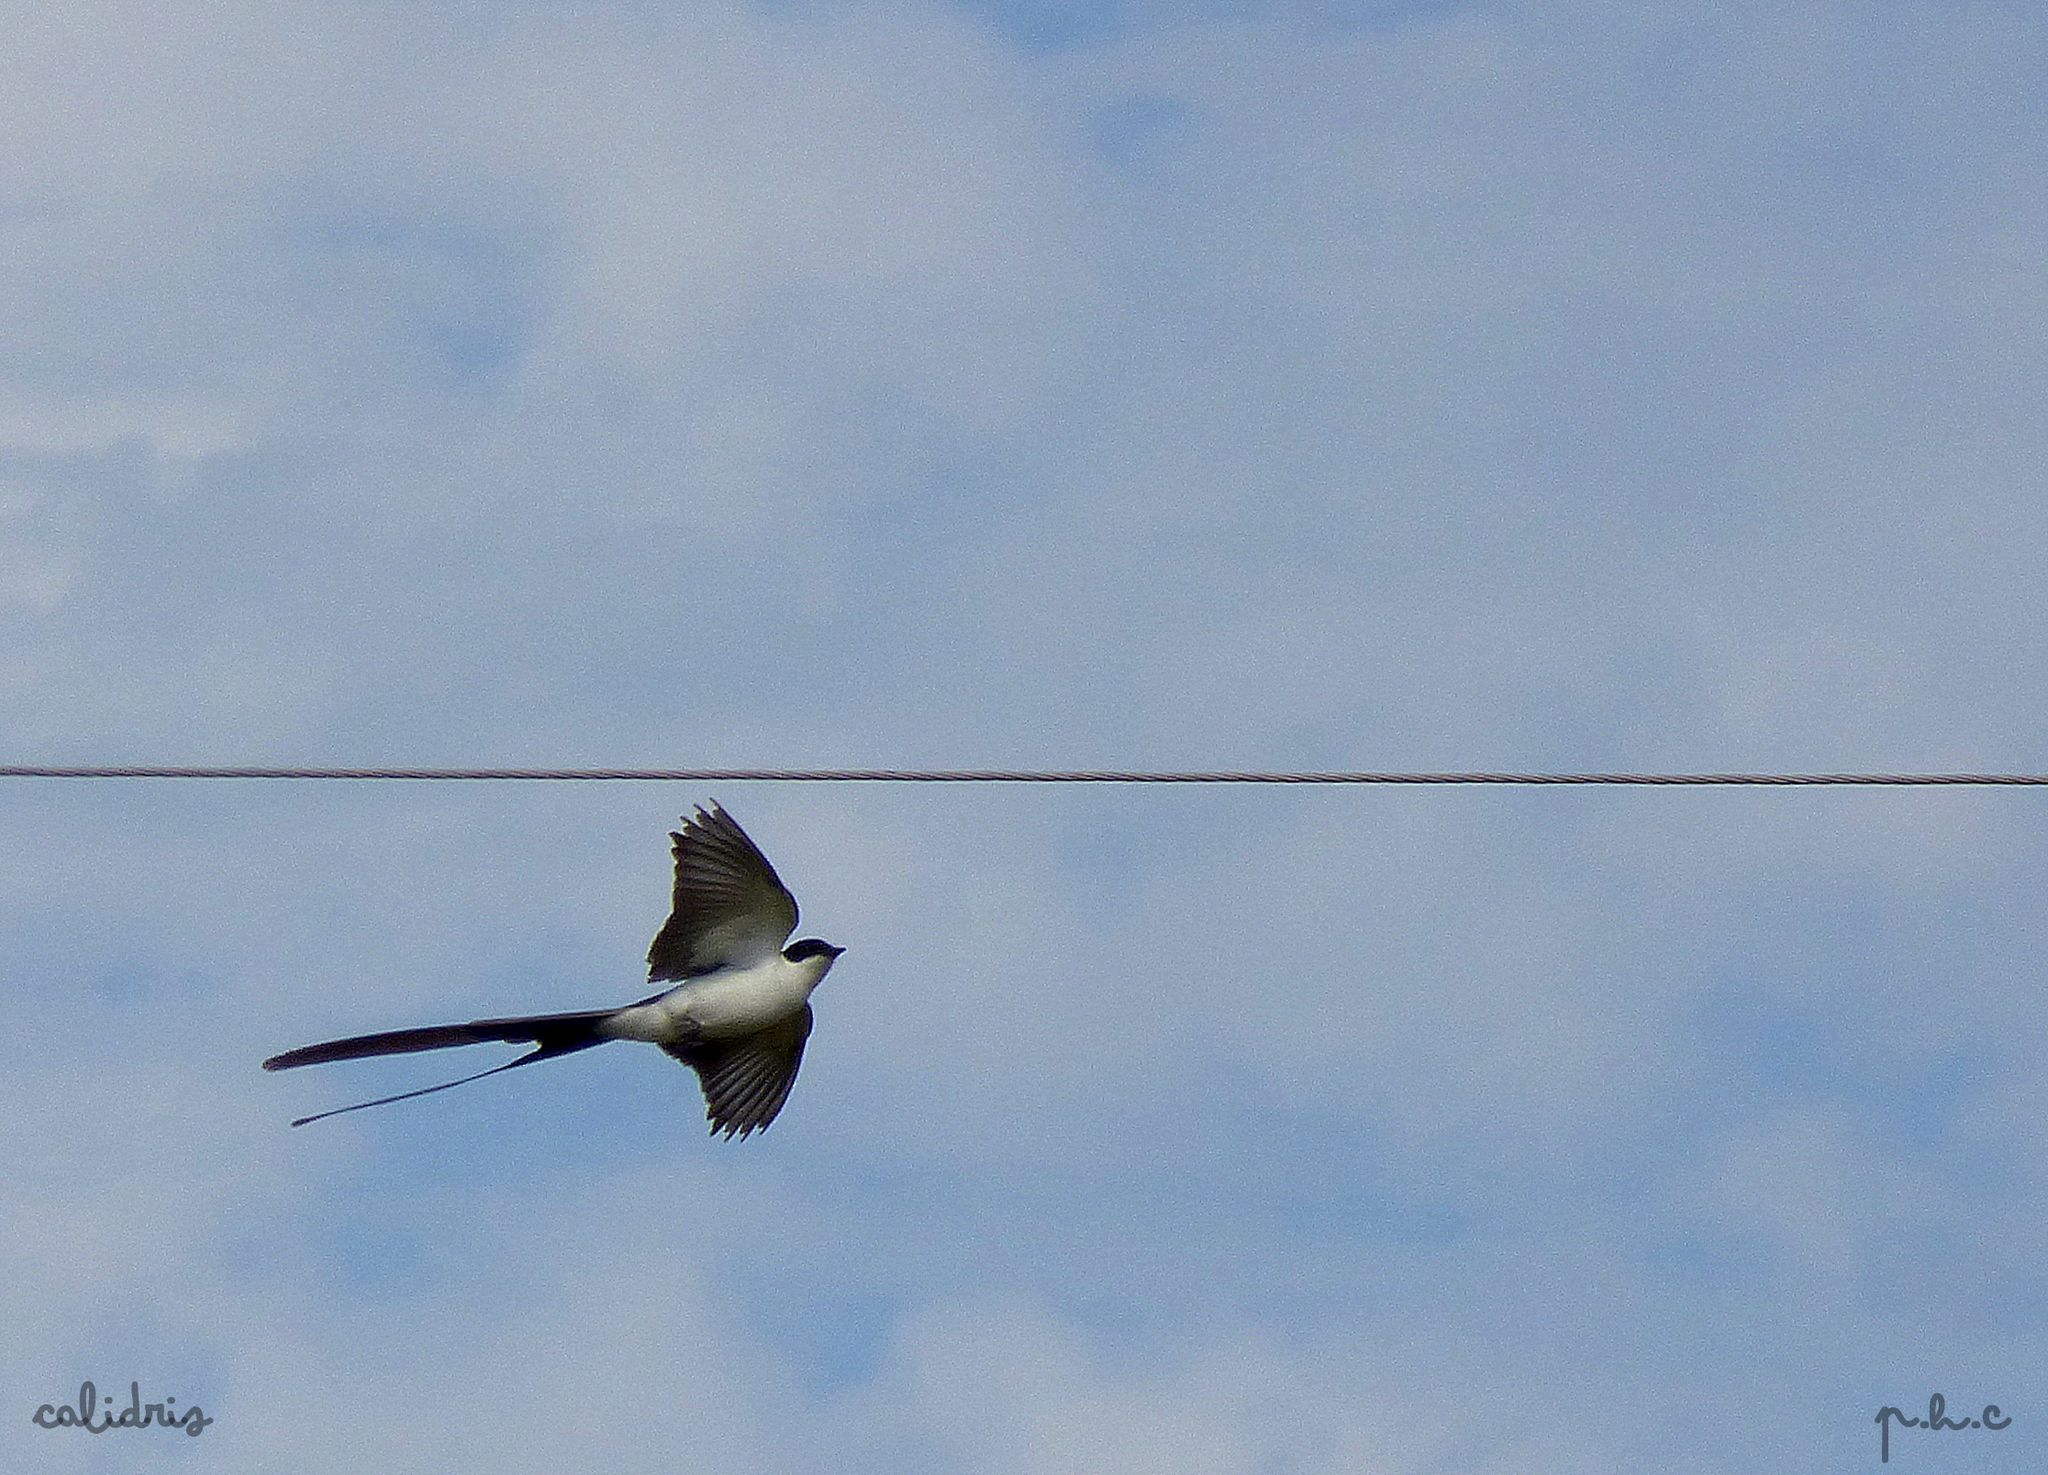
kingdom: Animalia
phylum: Chordata
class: Aves
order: Passeriformes
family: Tyrannidae
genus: Tyrannus
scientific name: Tyrannus savana
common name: Fork-tailed flycatcher
